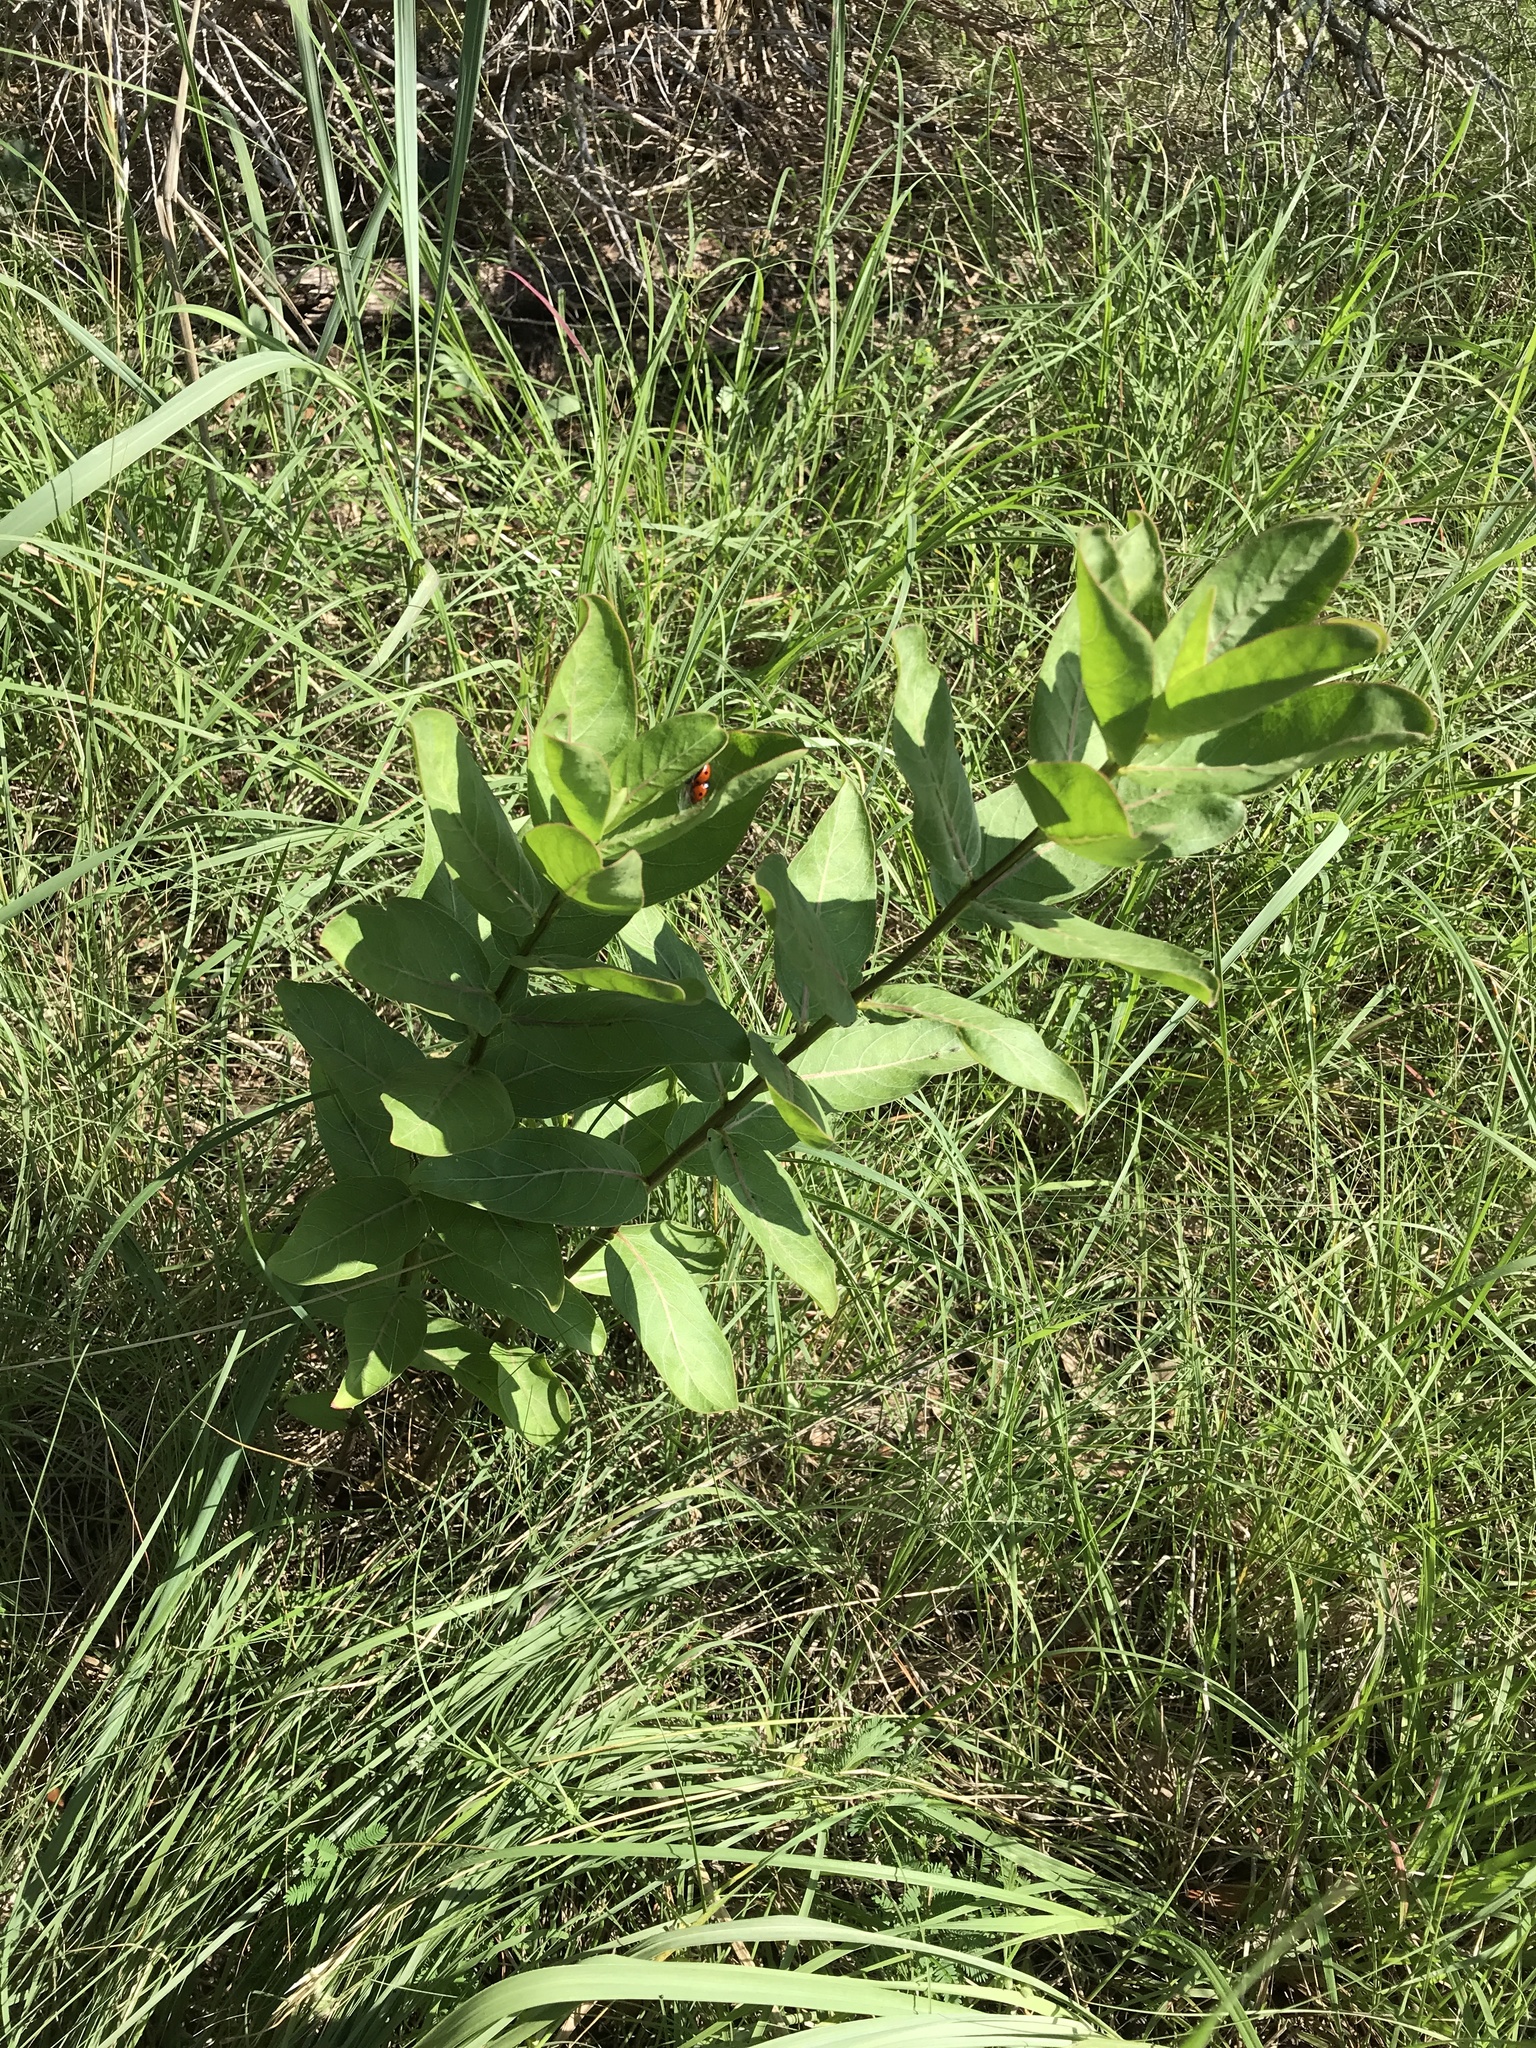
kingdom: Plantae
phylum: Tracheophyta
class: Magnoliopsida
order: Gentianales
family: Apocynaceae
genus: Asclepias
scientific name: Asclepias viridis
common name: Antelope-horns
